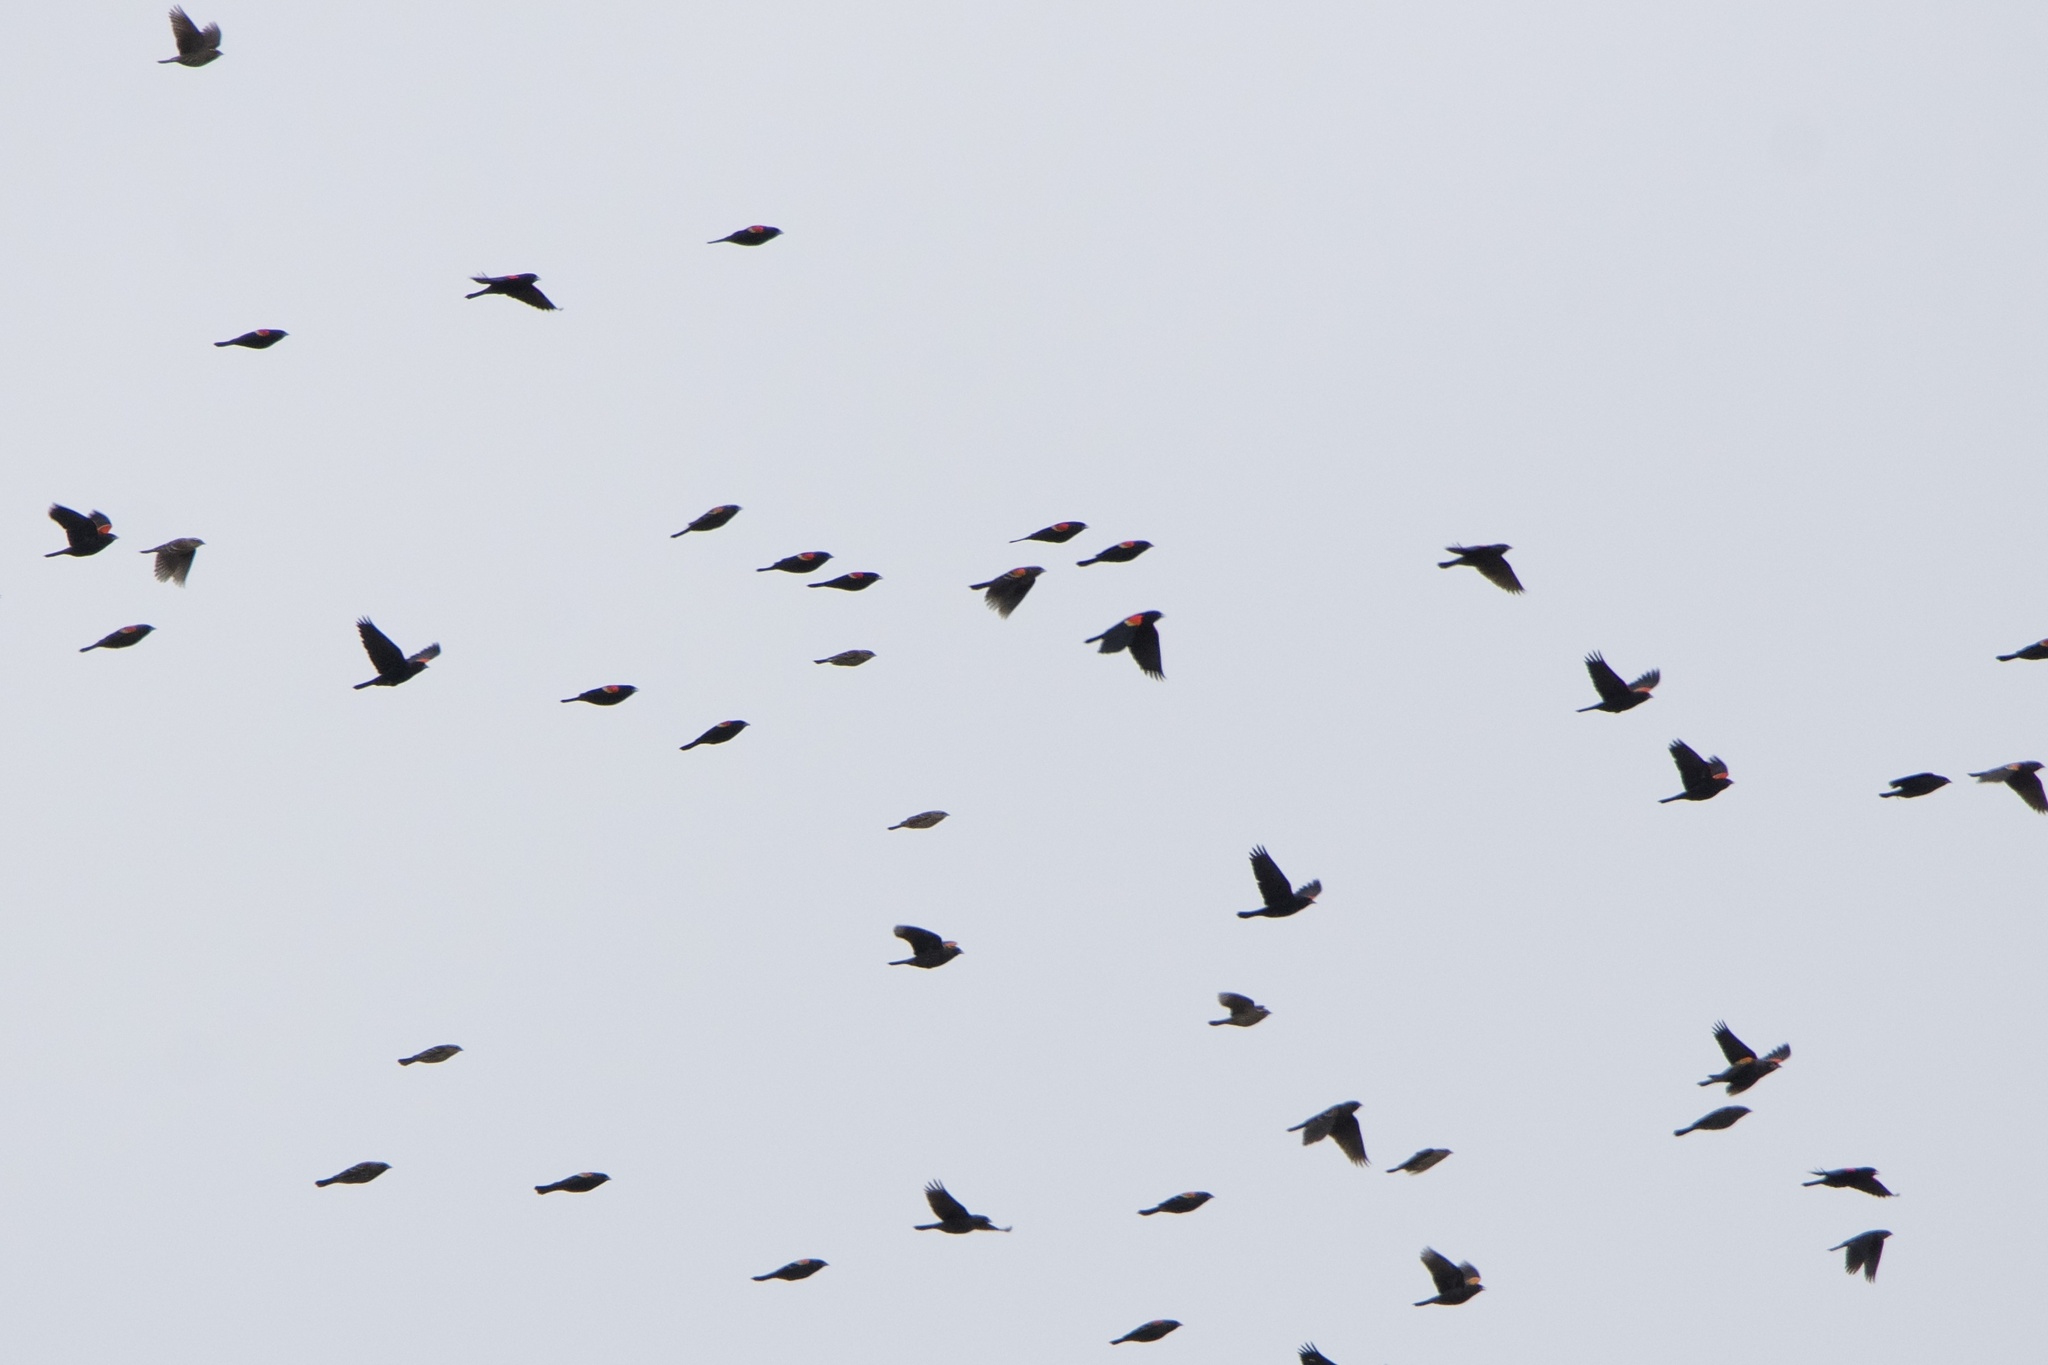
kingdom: Animalia
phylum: Chordata
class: Aves
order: Passeriformes
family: Icteridae
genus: Agelaius
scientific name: Agelaius phoeniceus
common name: Red-winged blackbird
